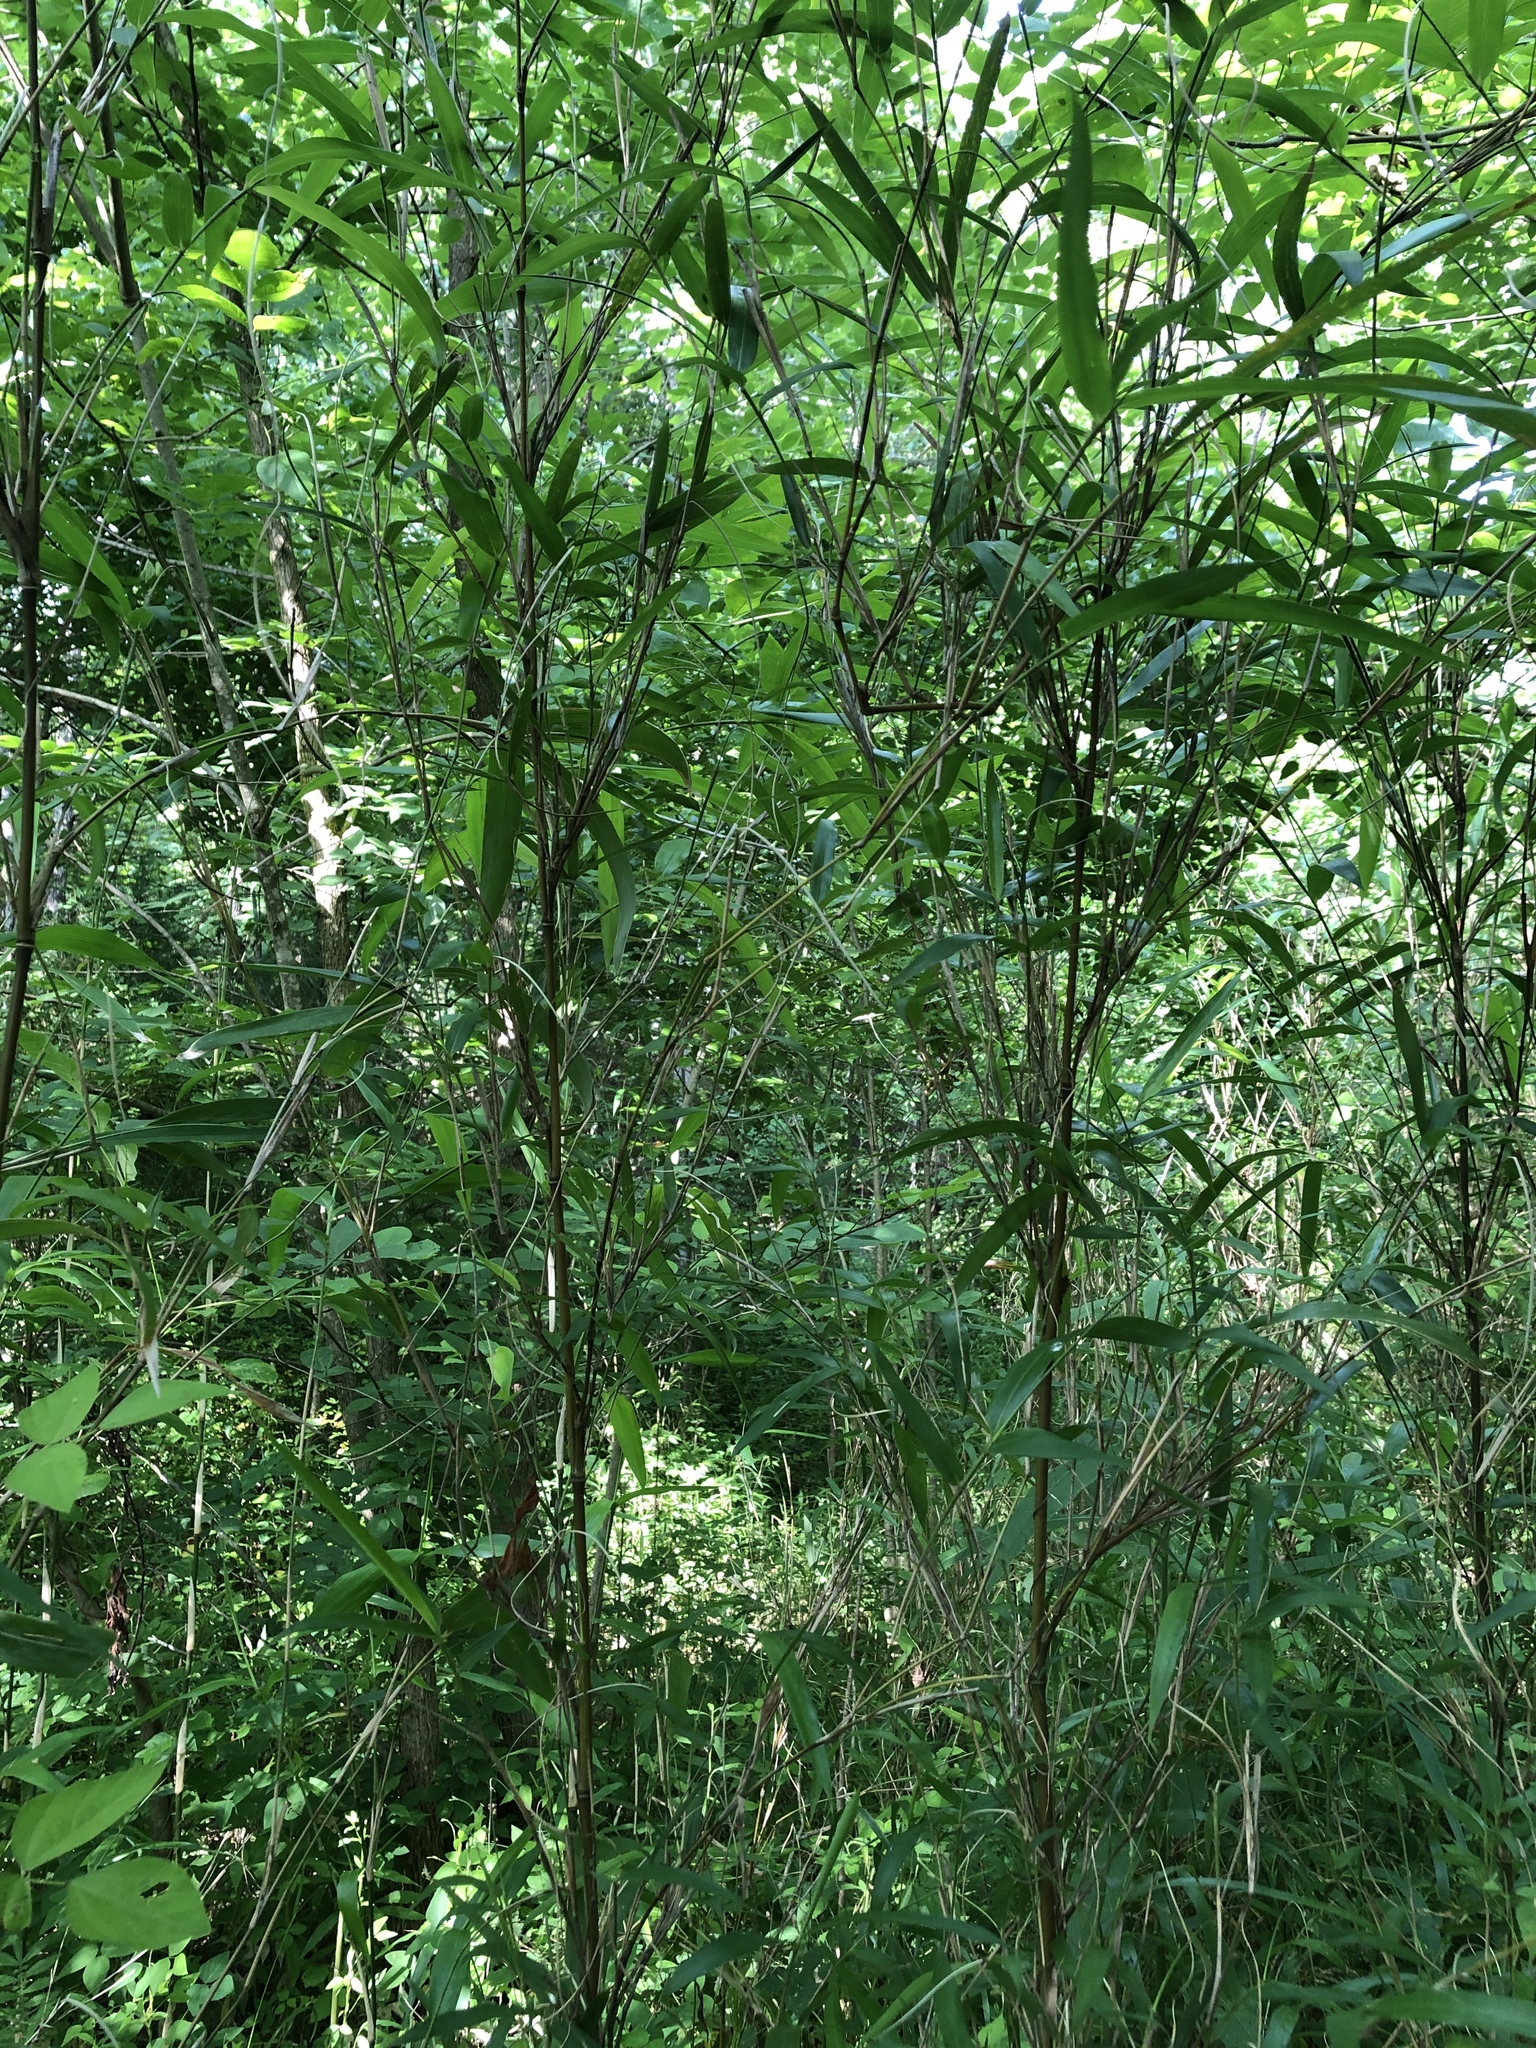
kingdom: Plantae
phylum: Tracheophyta
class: Liliopsida
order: Poales
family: Poaceae
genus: Arundinaria
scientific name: Arundinaria gigantea
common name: Giant cane
